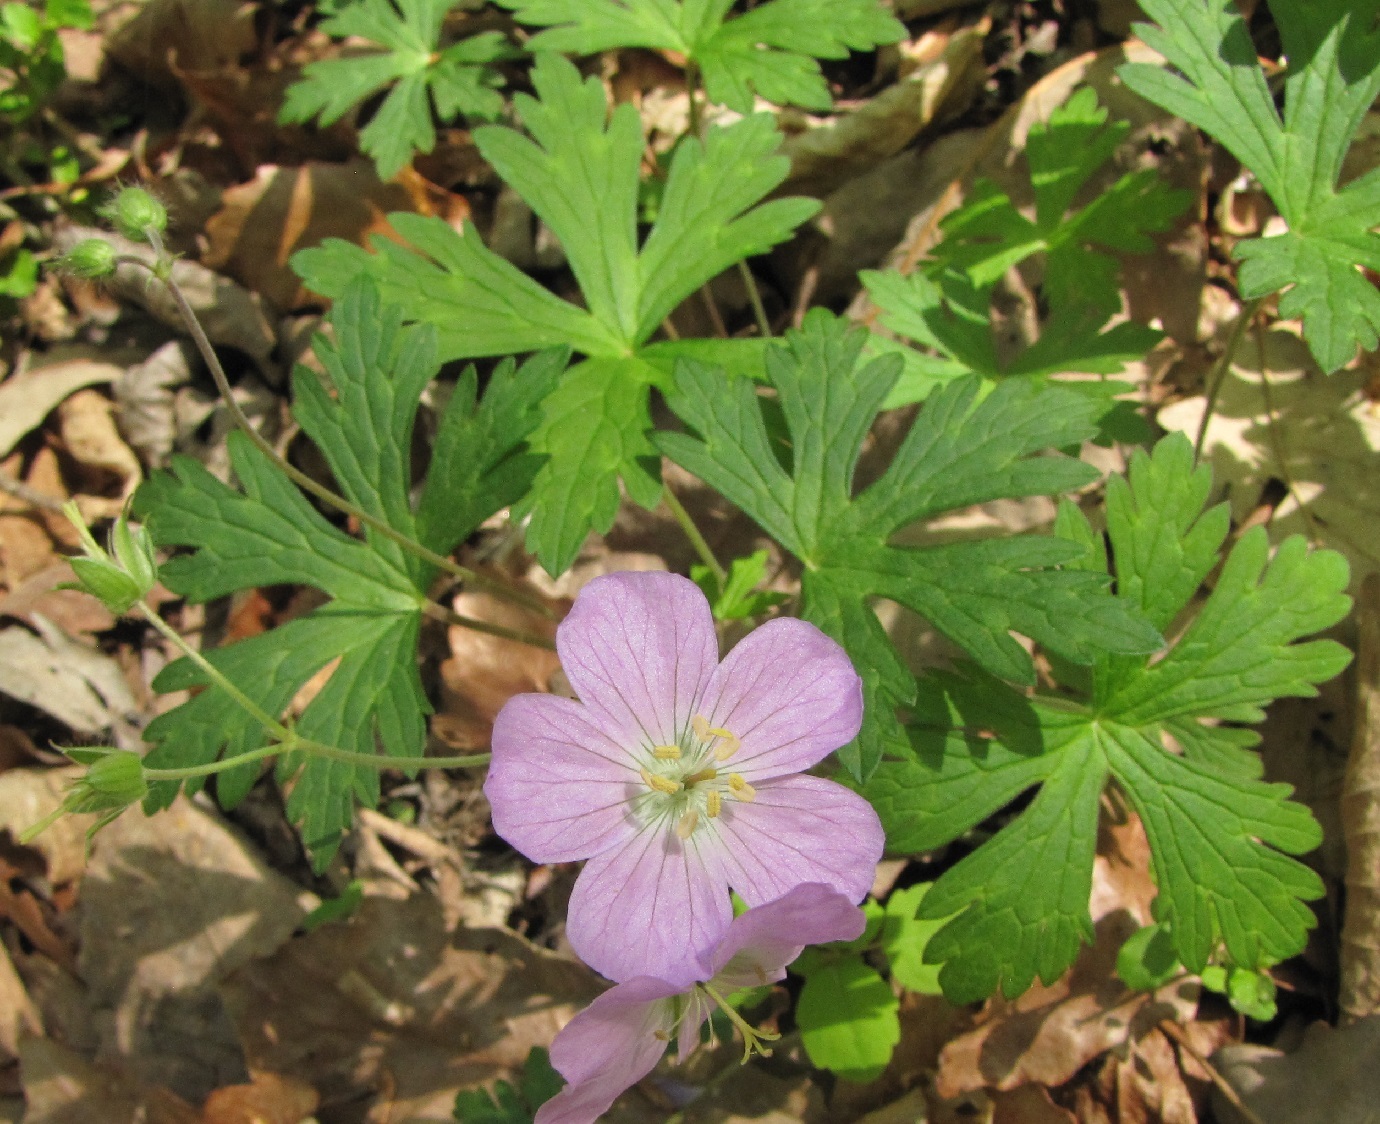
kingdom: Plantae
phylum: Tracheophyta
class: Magnoliopsida
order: Geraniales
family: Geraniaceae
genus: Geranium
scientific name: Geranium maculatum
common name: Spotted geranium
